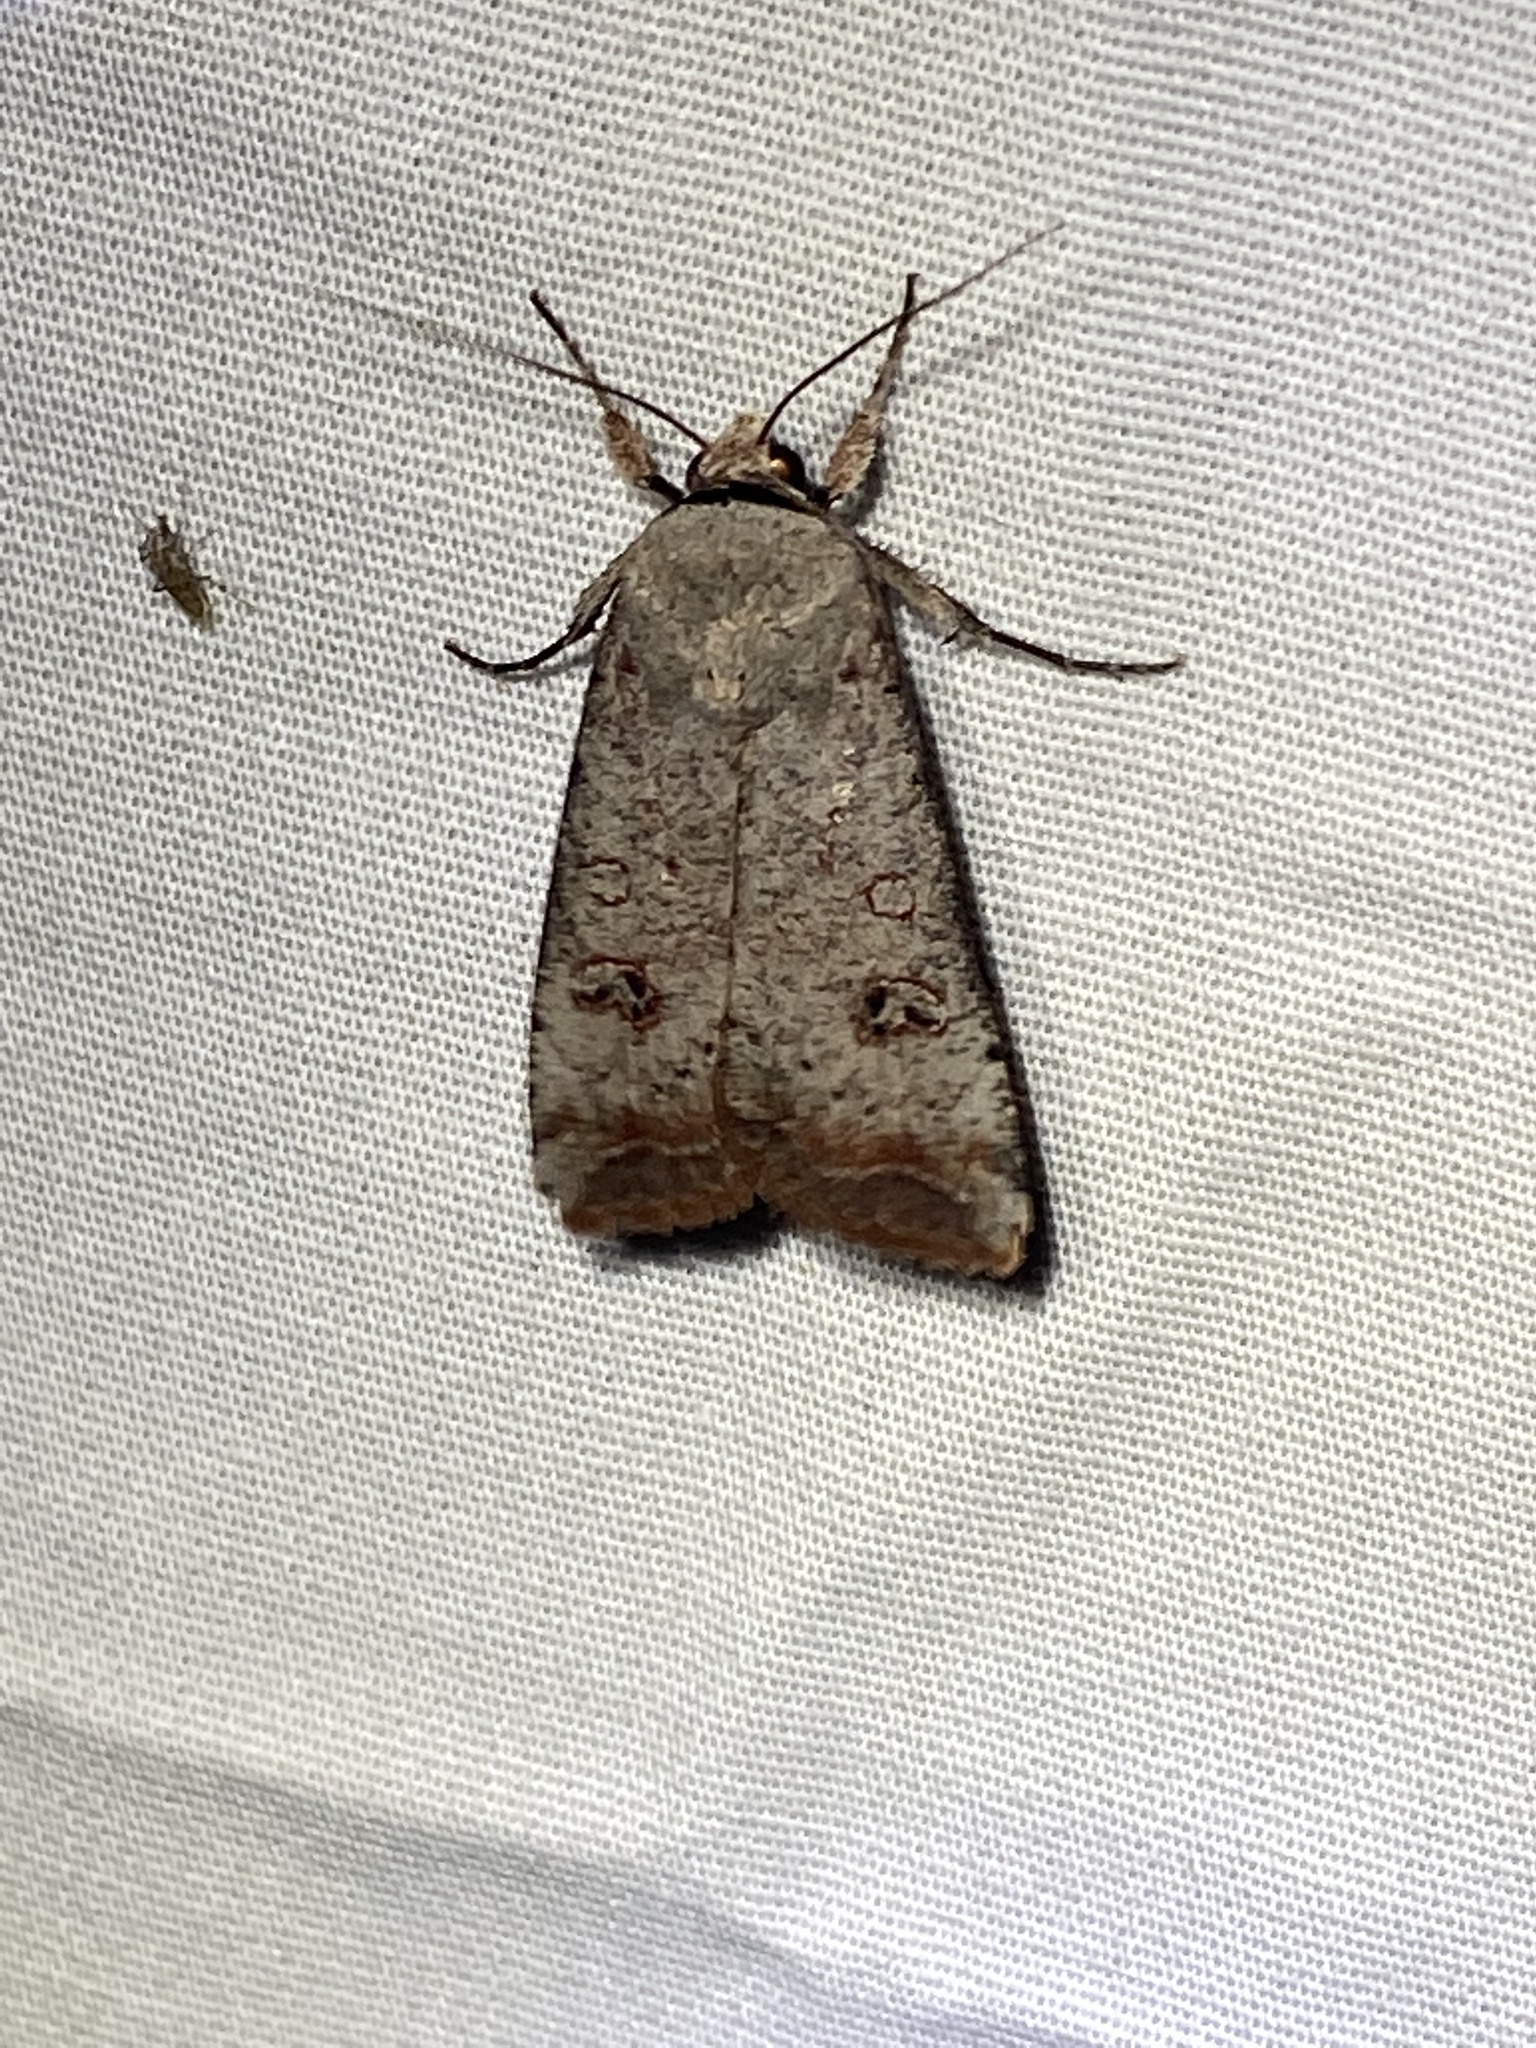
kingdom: Animalia
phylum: Arthropoda
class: Insecta
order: Lepidoptera
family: Noctuidae
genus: Anicla
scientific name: Anicla infecta
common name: Green cutworm
